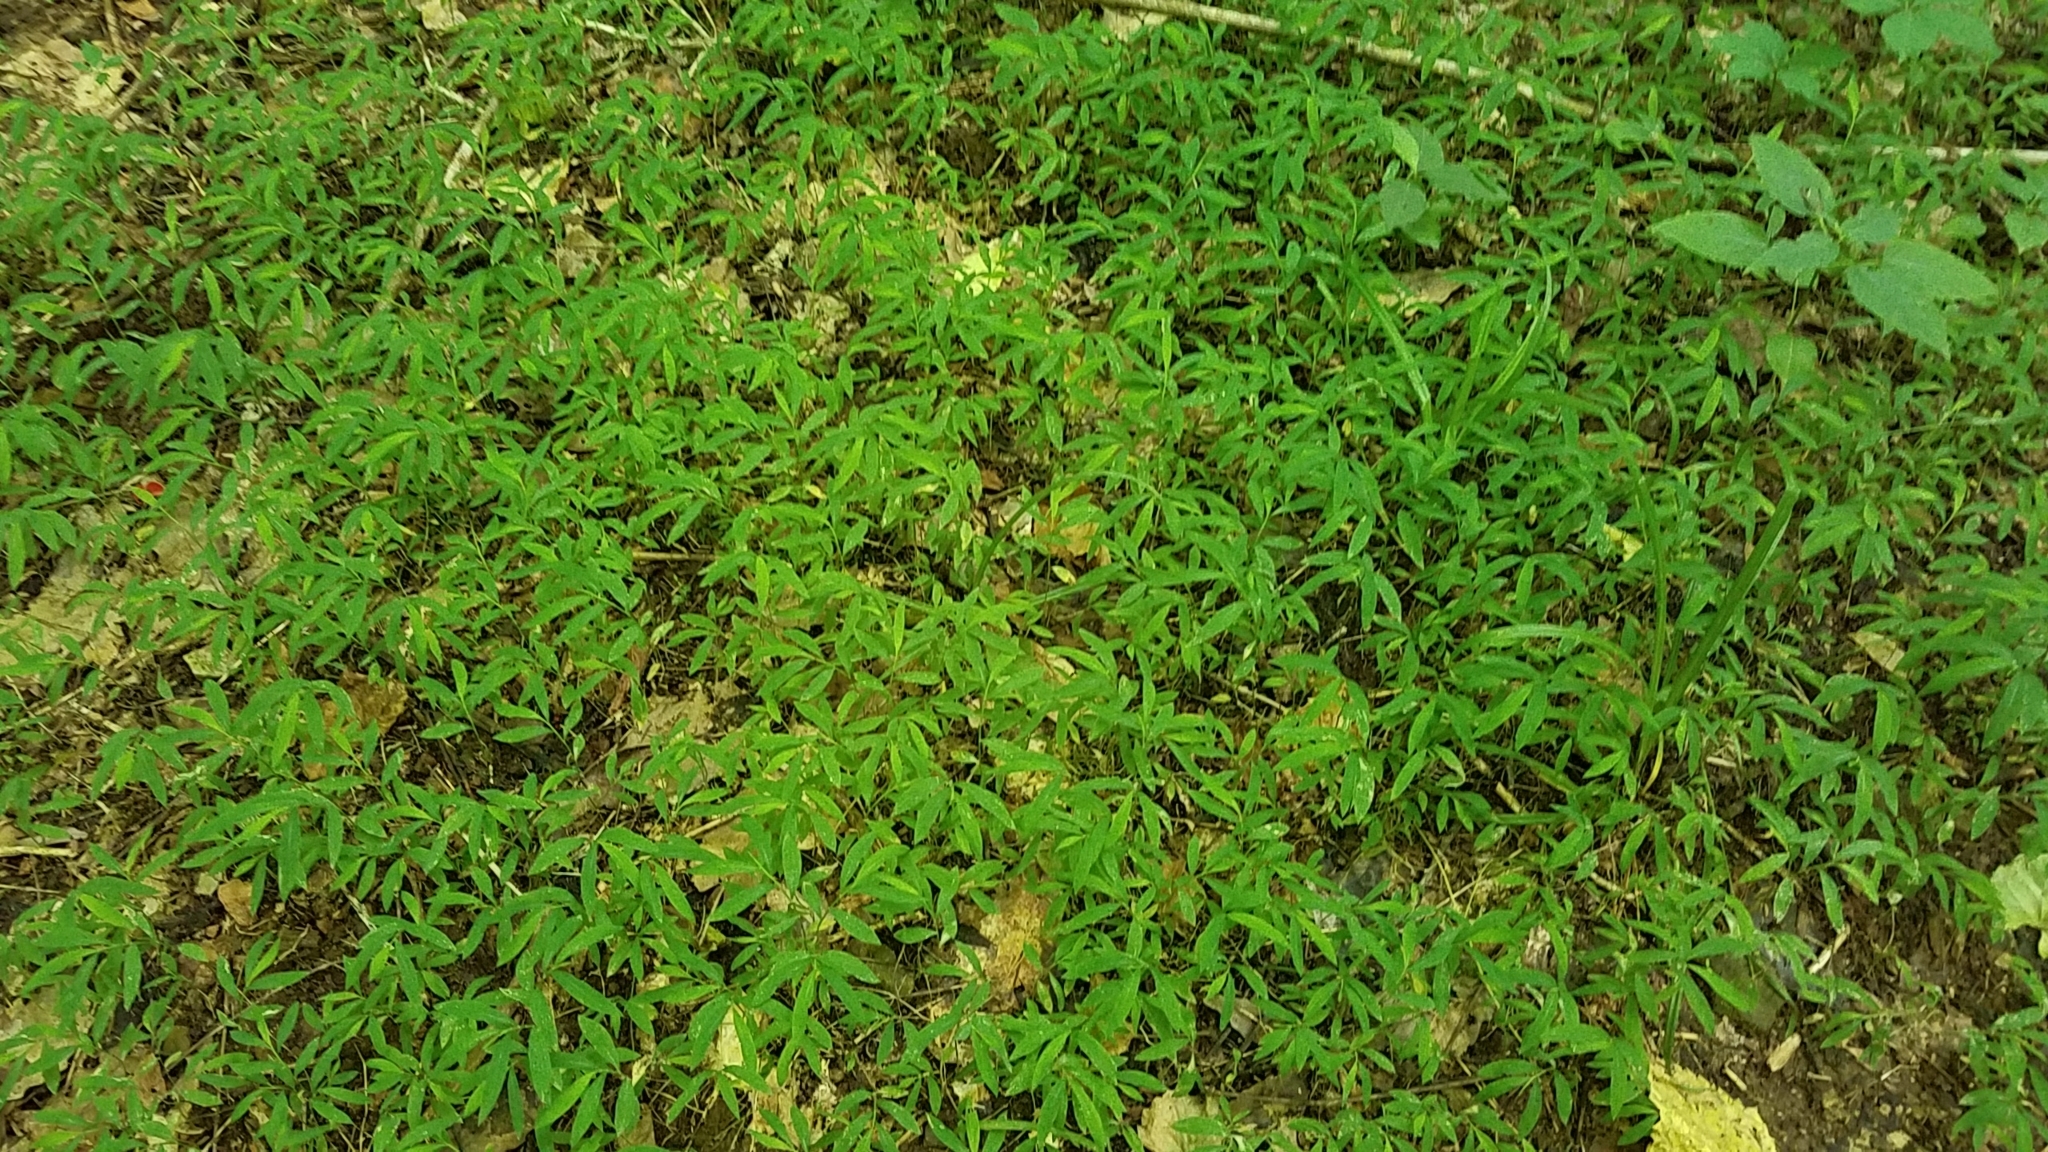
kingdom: Plantae
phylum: Tracheophyta
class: Liliopsida
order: Poales
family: Poaceae
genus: Microstegium
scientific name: Microstegium vimineum
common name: Japanese stiltgrass
